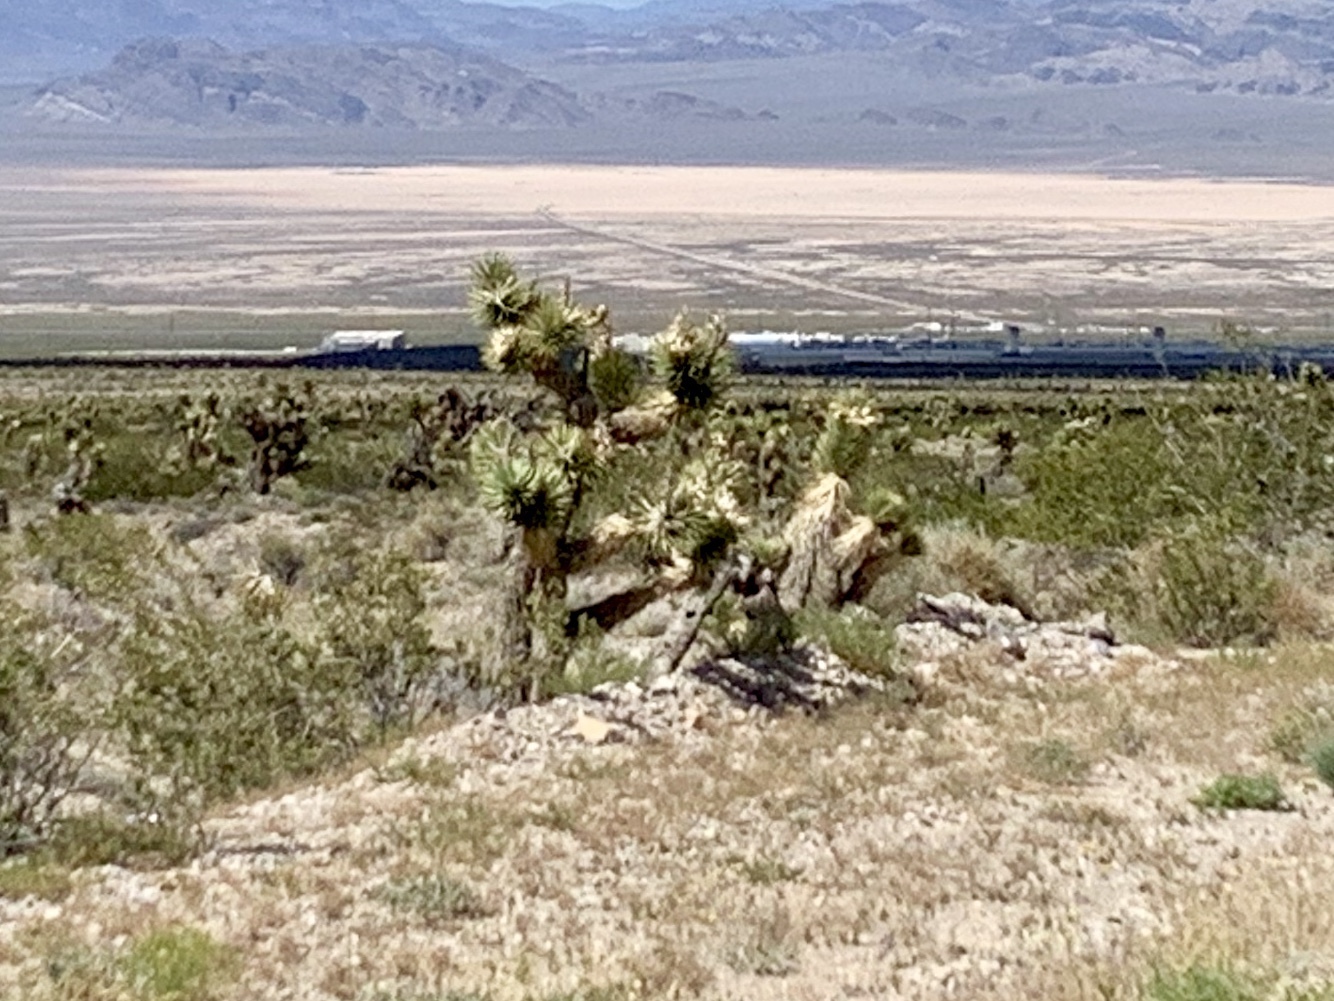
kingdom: Plantae
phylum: Tracheophyta
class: Liliopsida
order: Asparagales
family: Asparagaceae
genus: Yucca
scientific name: Yucca brevifolia
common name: Joshua tree
